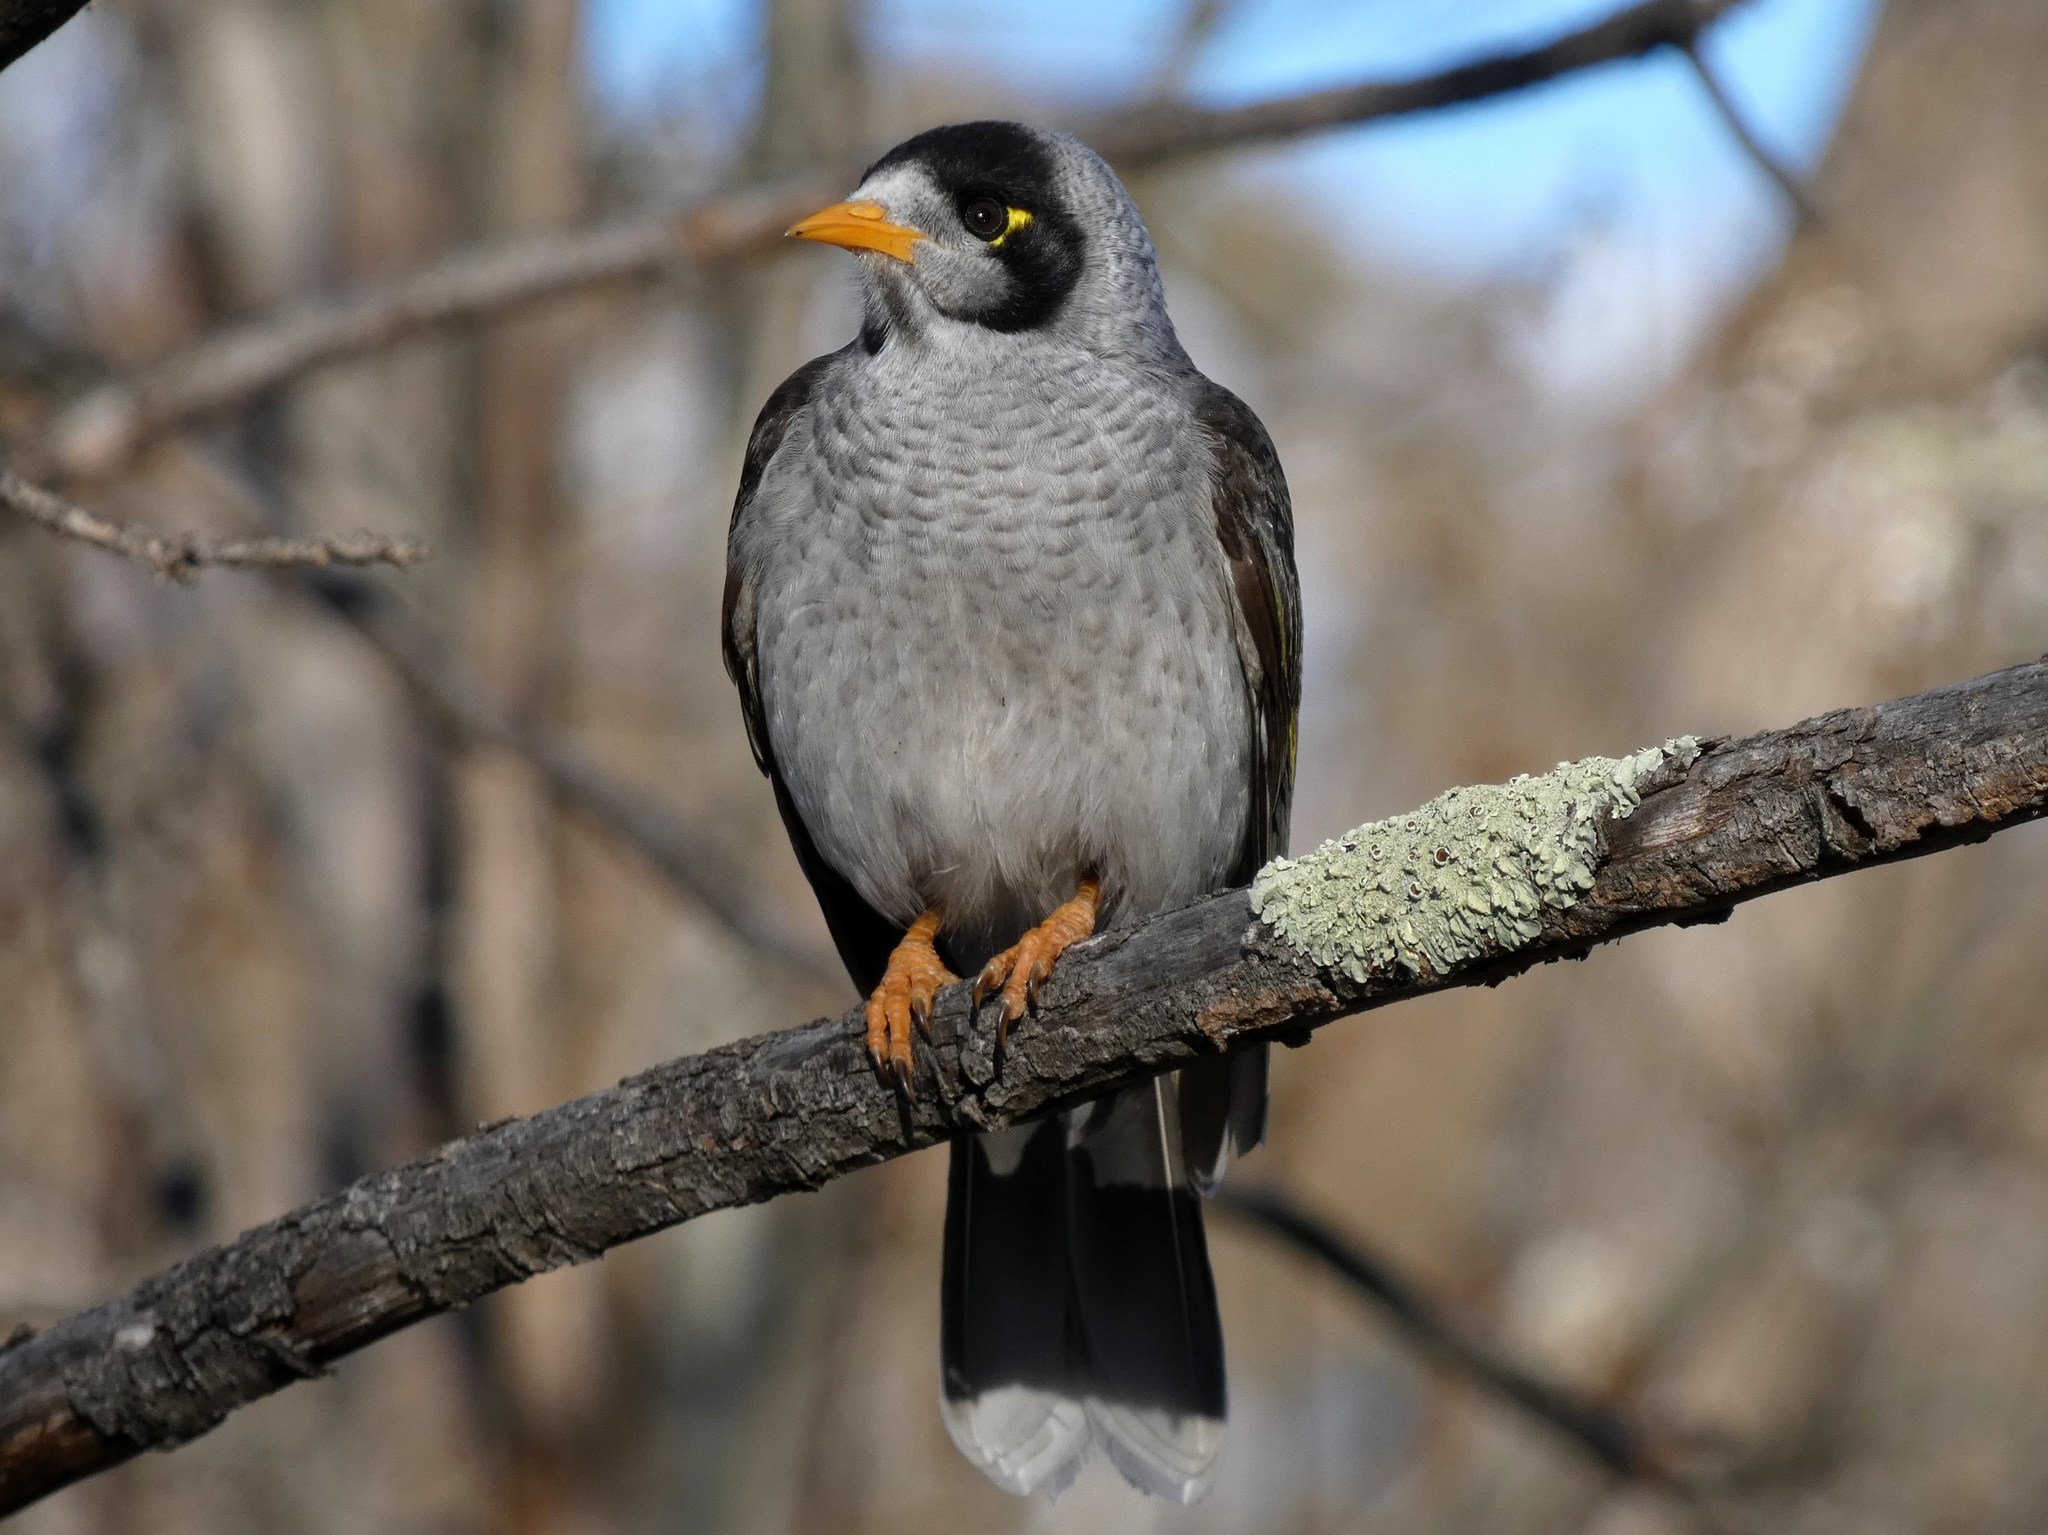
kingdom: Animalia
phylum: Chordata
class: Aves
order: Passeriformes
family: Meliphagidae
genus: Manorina
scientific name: Manorina melanocephala
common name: Noisy miner
